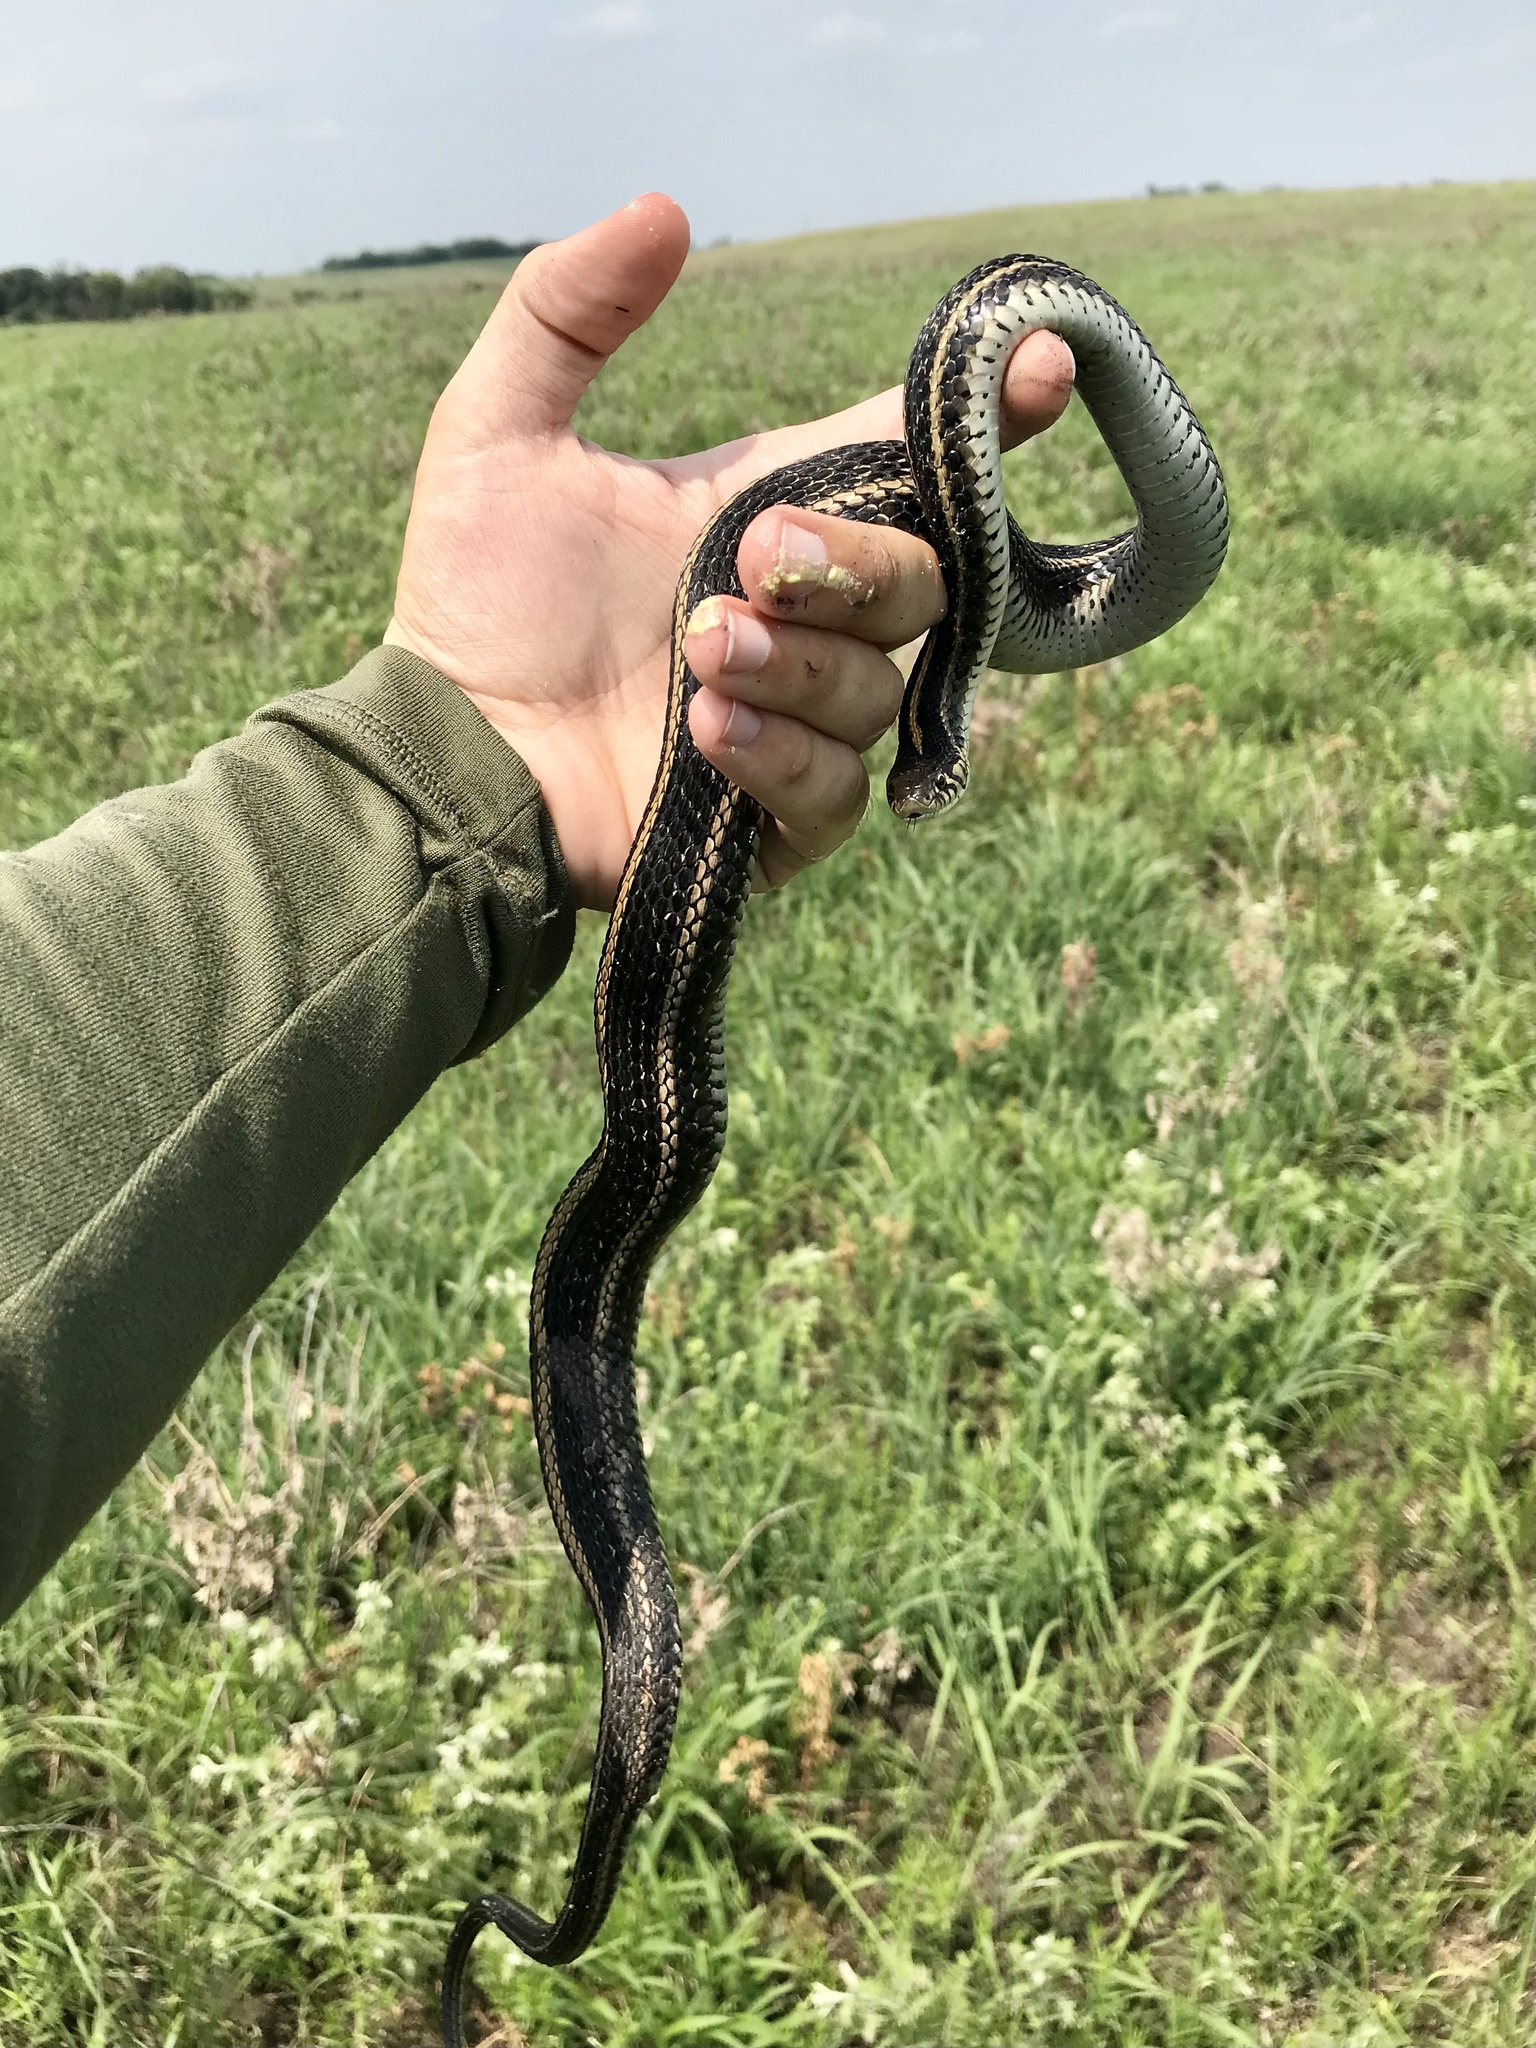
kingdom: Animalia
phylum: Chordata
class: Squamata
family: Colubridae
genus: Thamnophis
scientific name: Thamnophis radix
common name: Plains garter snake
